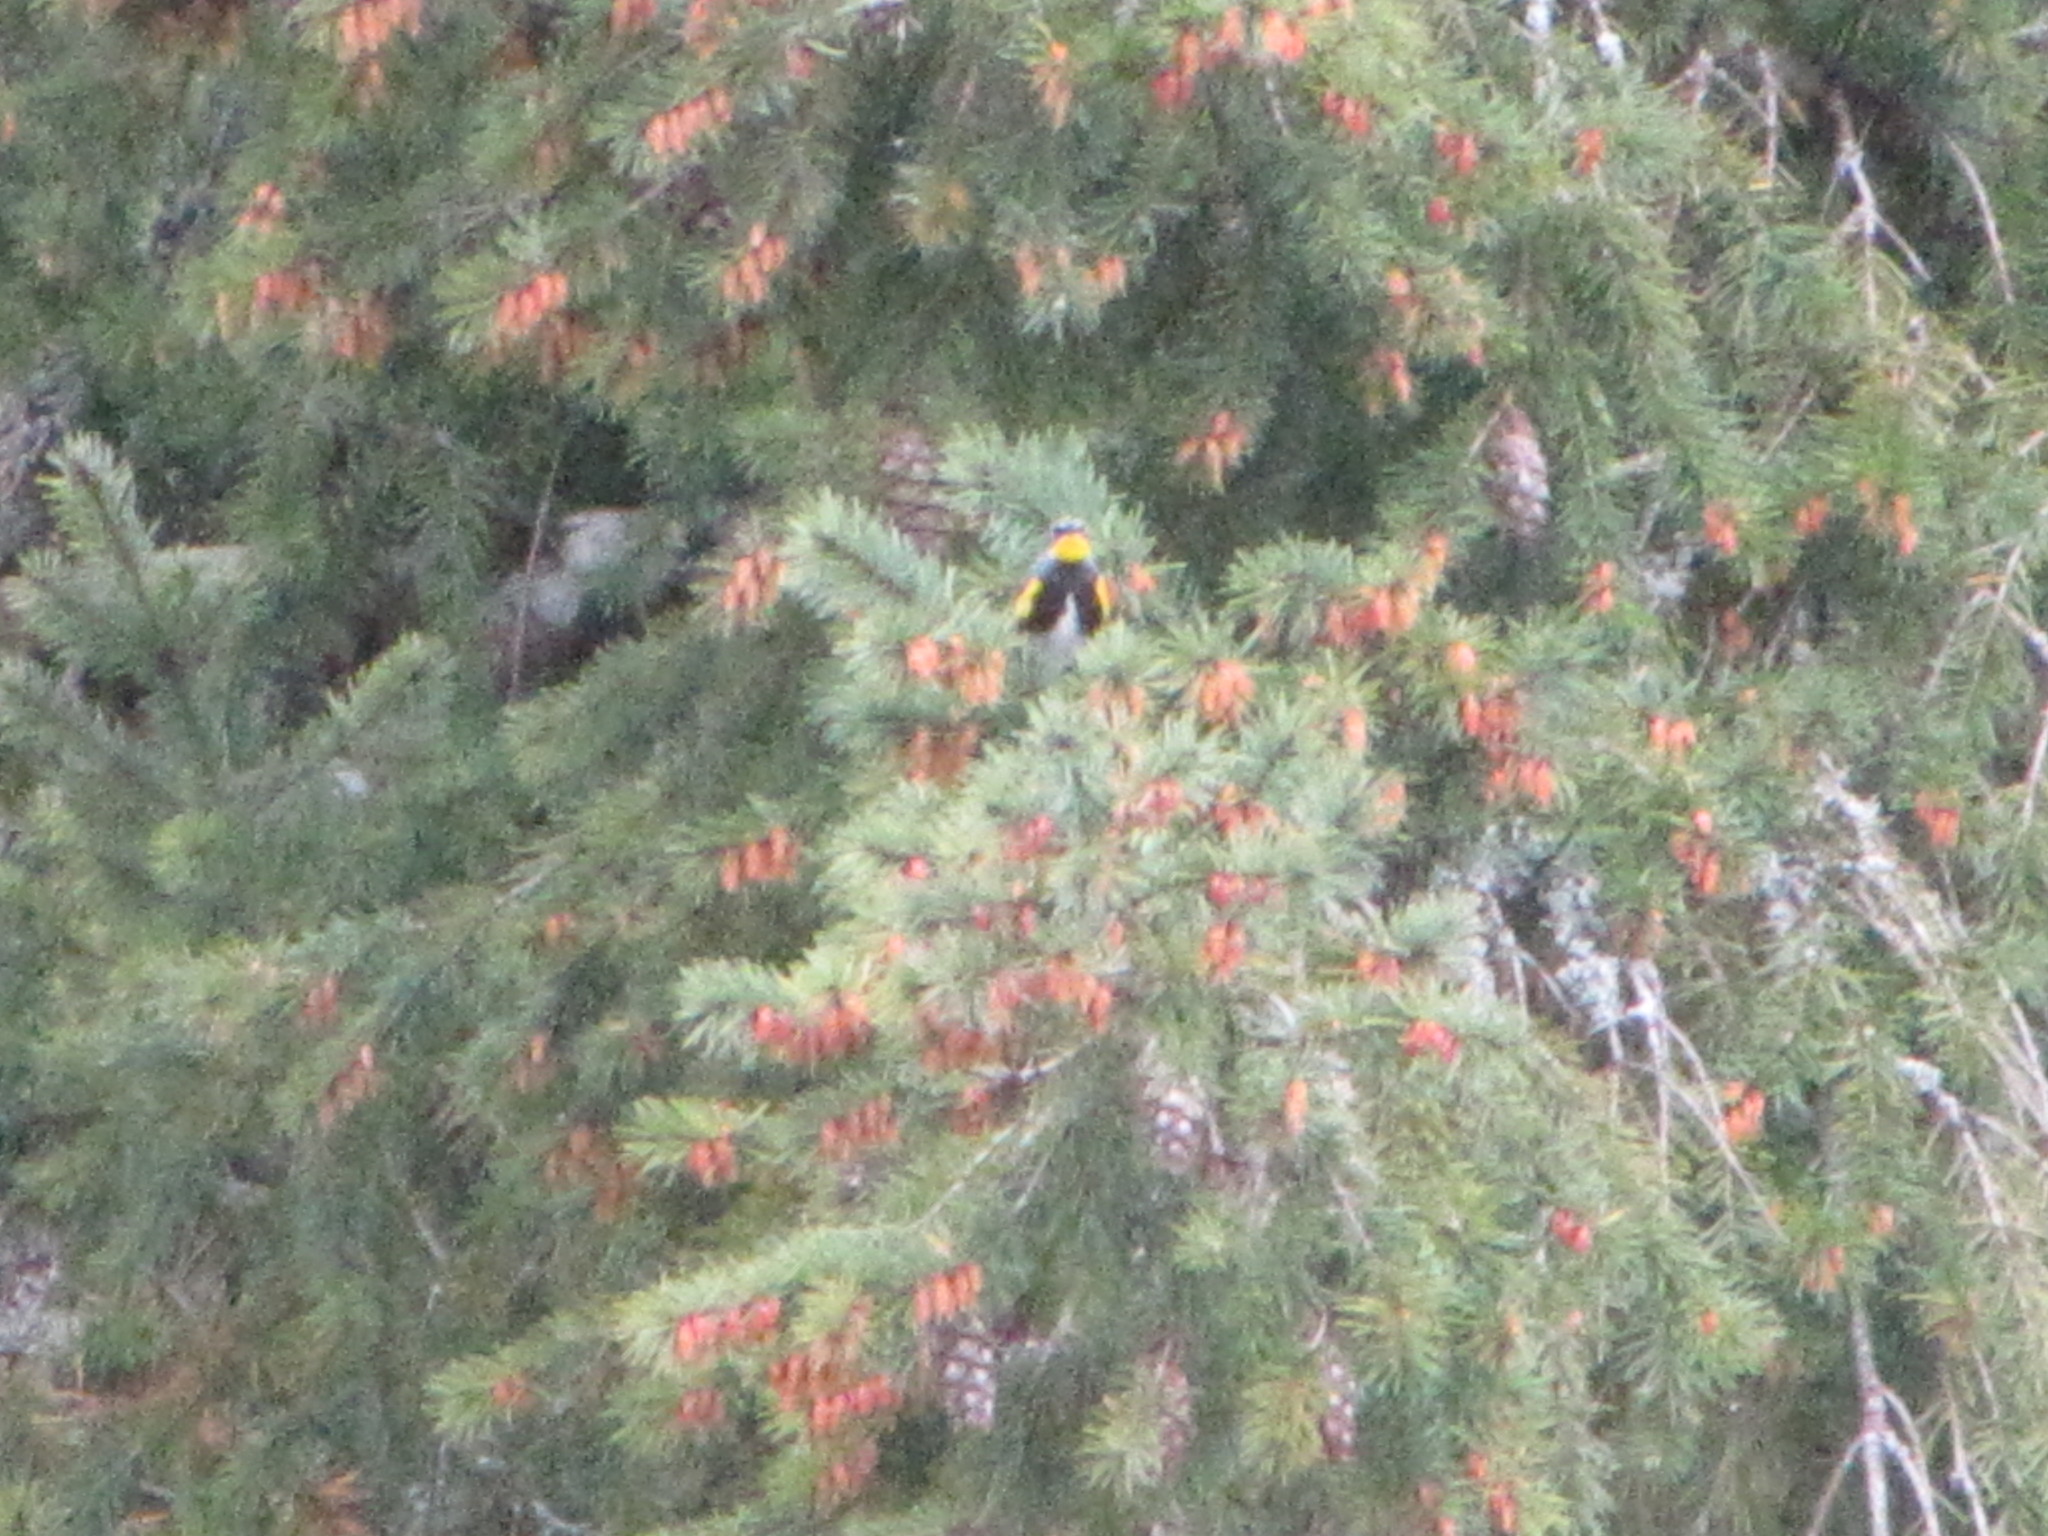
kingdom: Animalia
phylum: Chordata
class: Aves
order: Passeriformes
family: Parulidae
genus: Setophaga
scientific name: Setophaga auduboni
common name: Audubon's warbler
